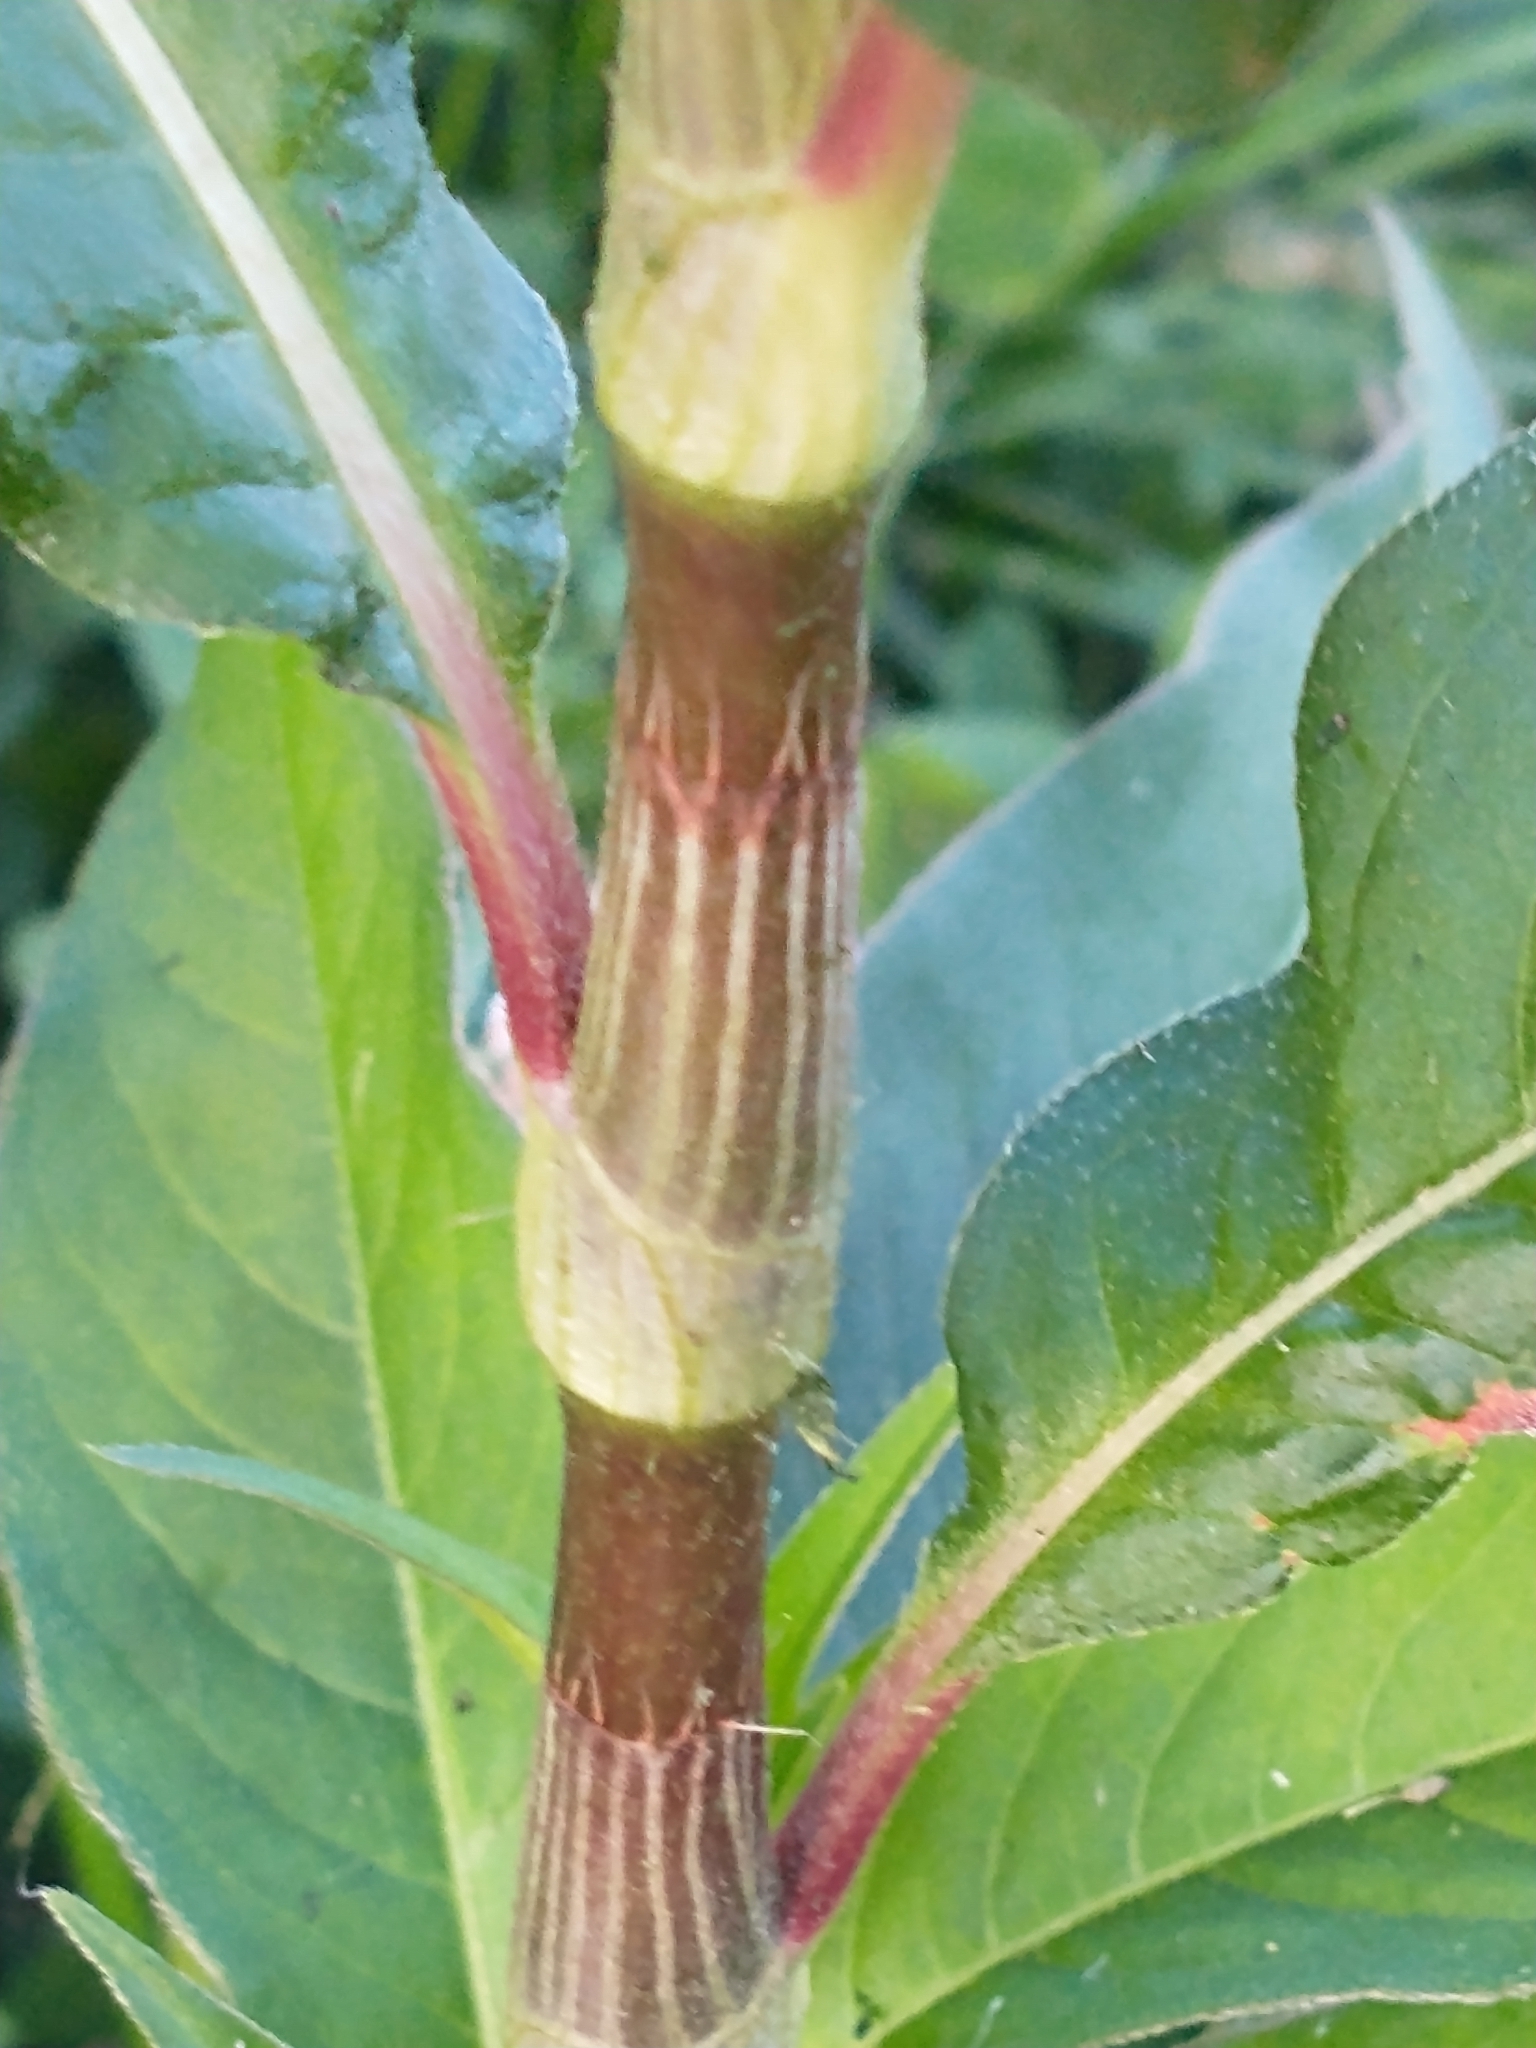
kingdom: Plantae
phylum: Tracheophyta
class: Magnoliopsida
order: Caryophyllales
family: Polygonaceae
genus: Persicaria
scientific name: Persicaria extremiorientalis
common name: Far-eastern smartweed
